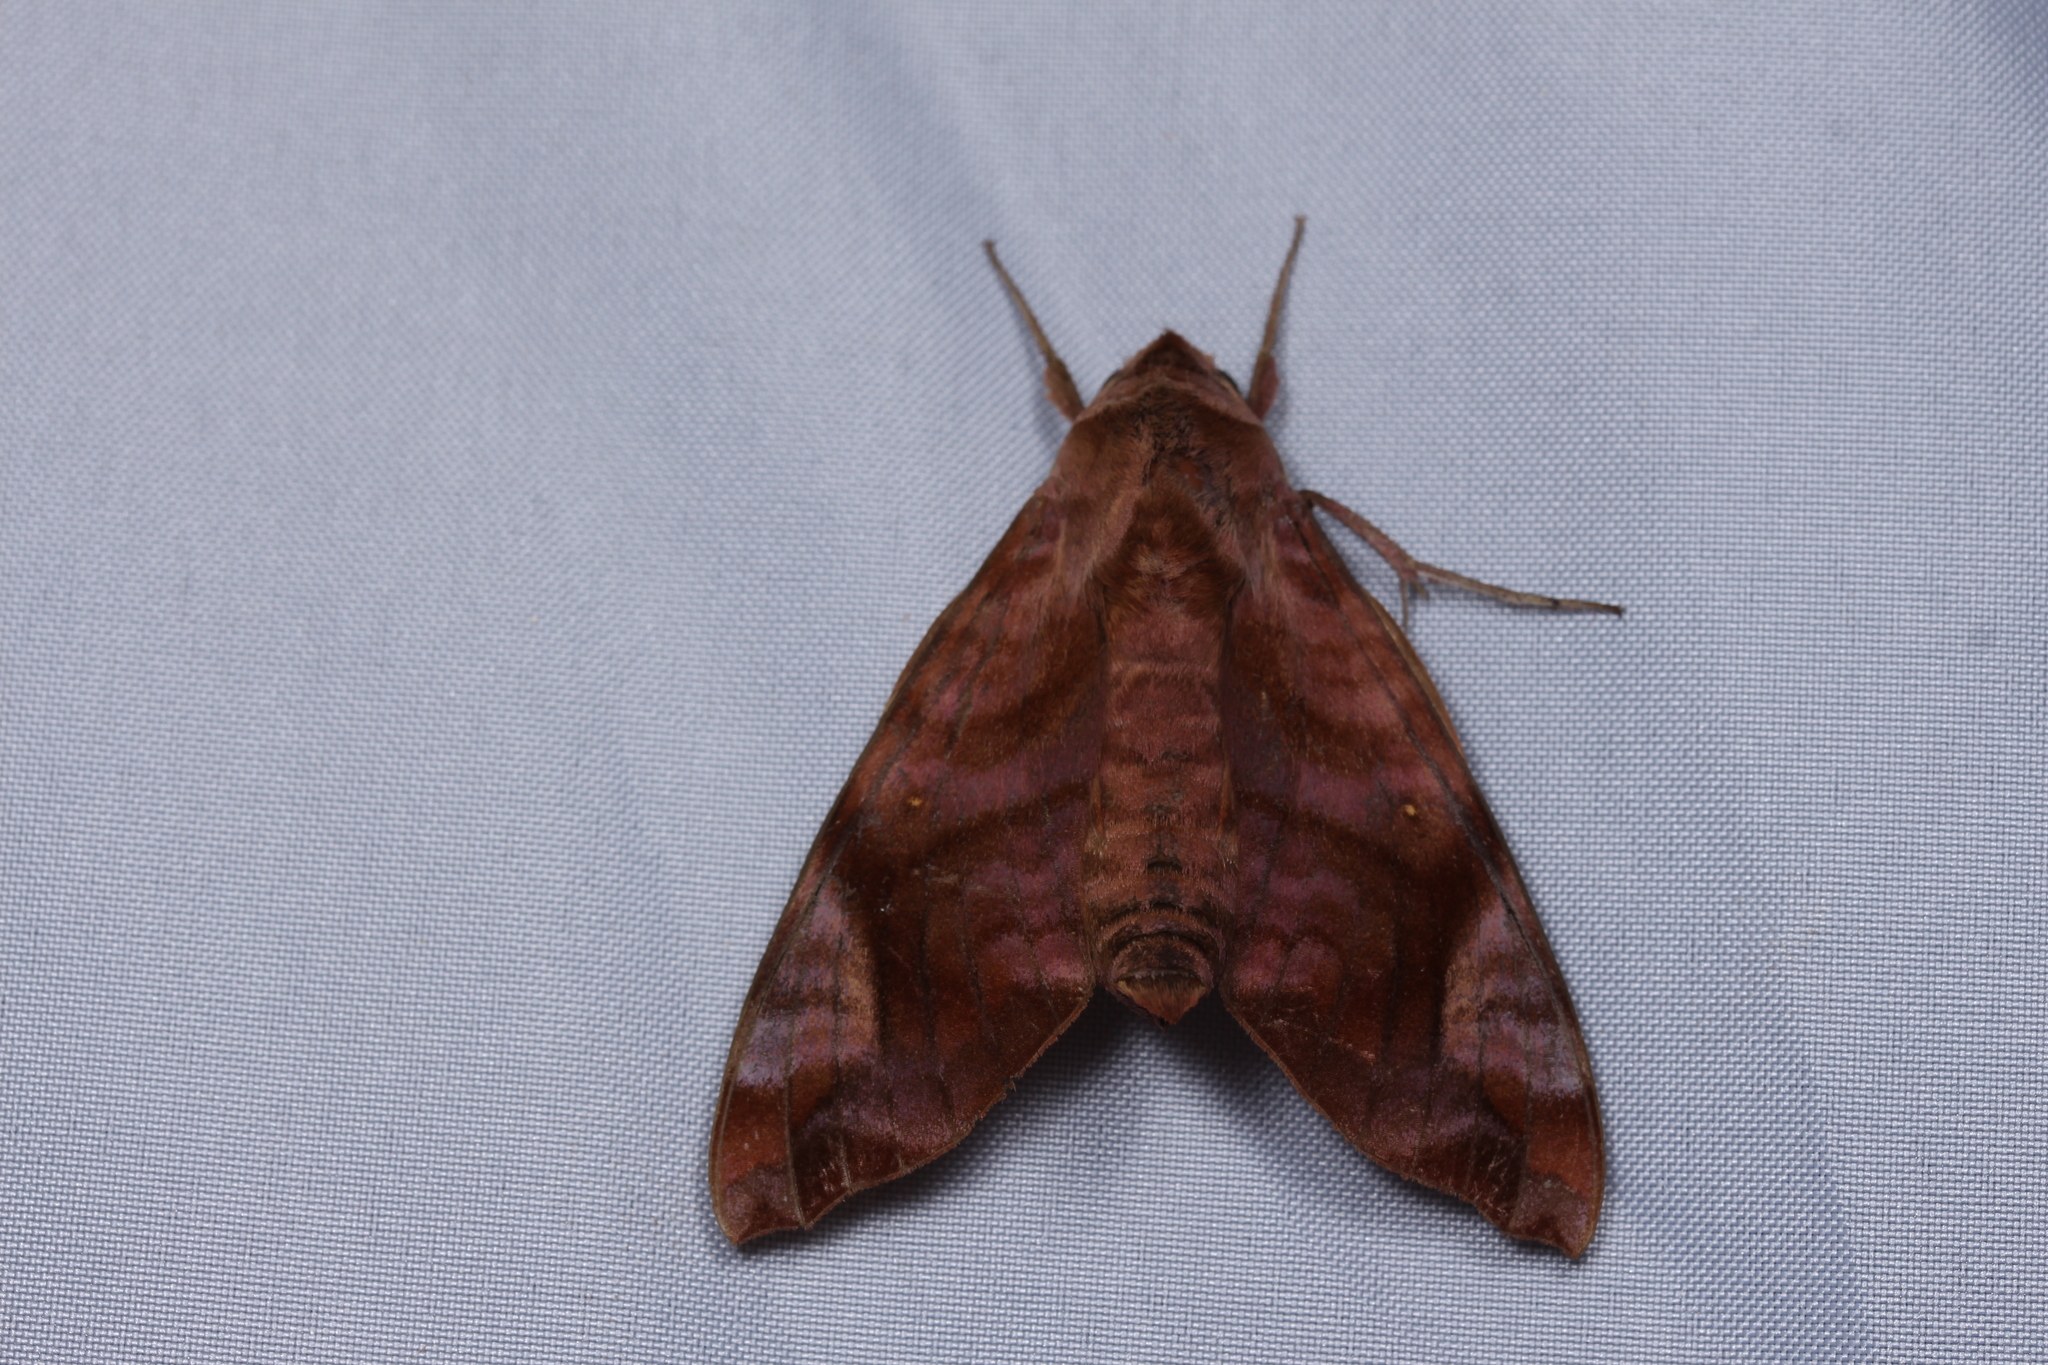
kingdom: Animalia
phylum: Arthropoda
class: Insecta
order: Lepidoptera
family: Sphingidae
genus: Acosmeryx
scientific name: Acosmeryx anceus
